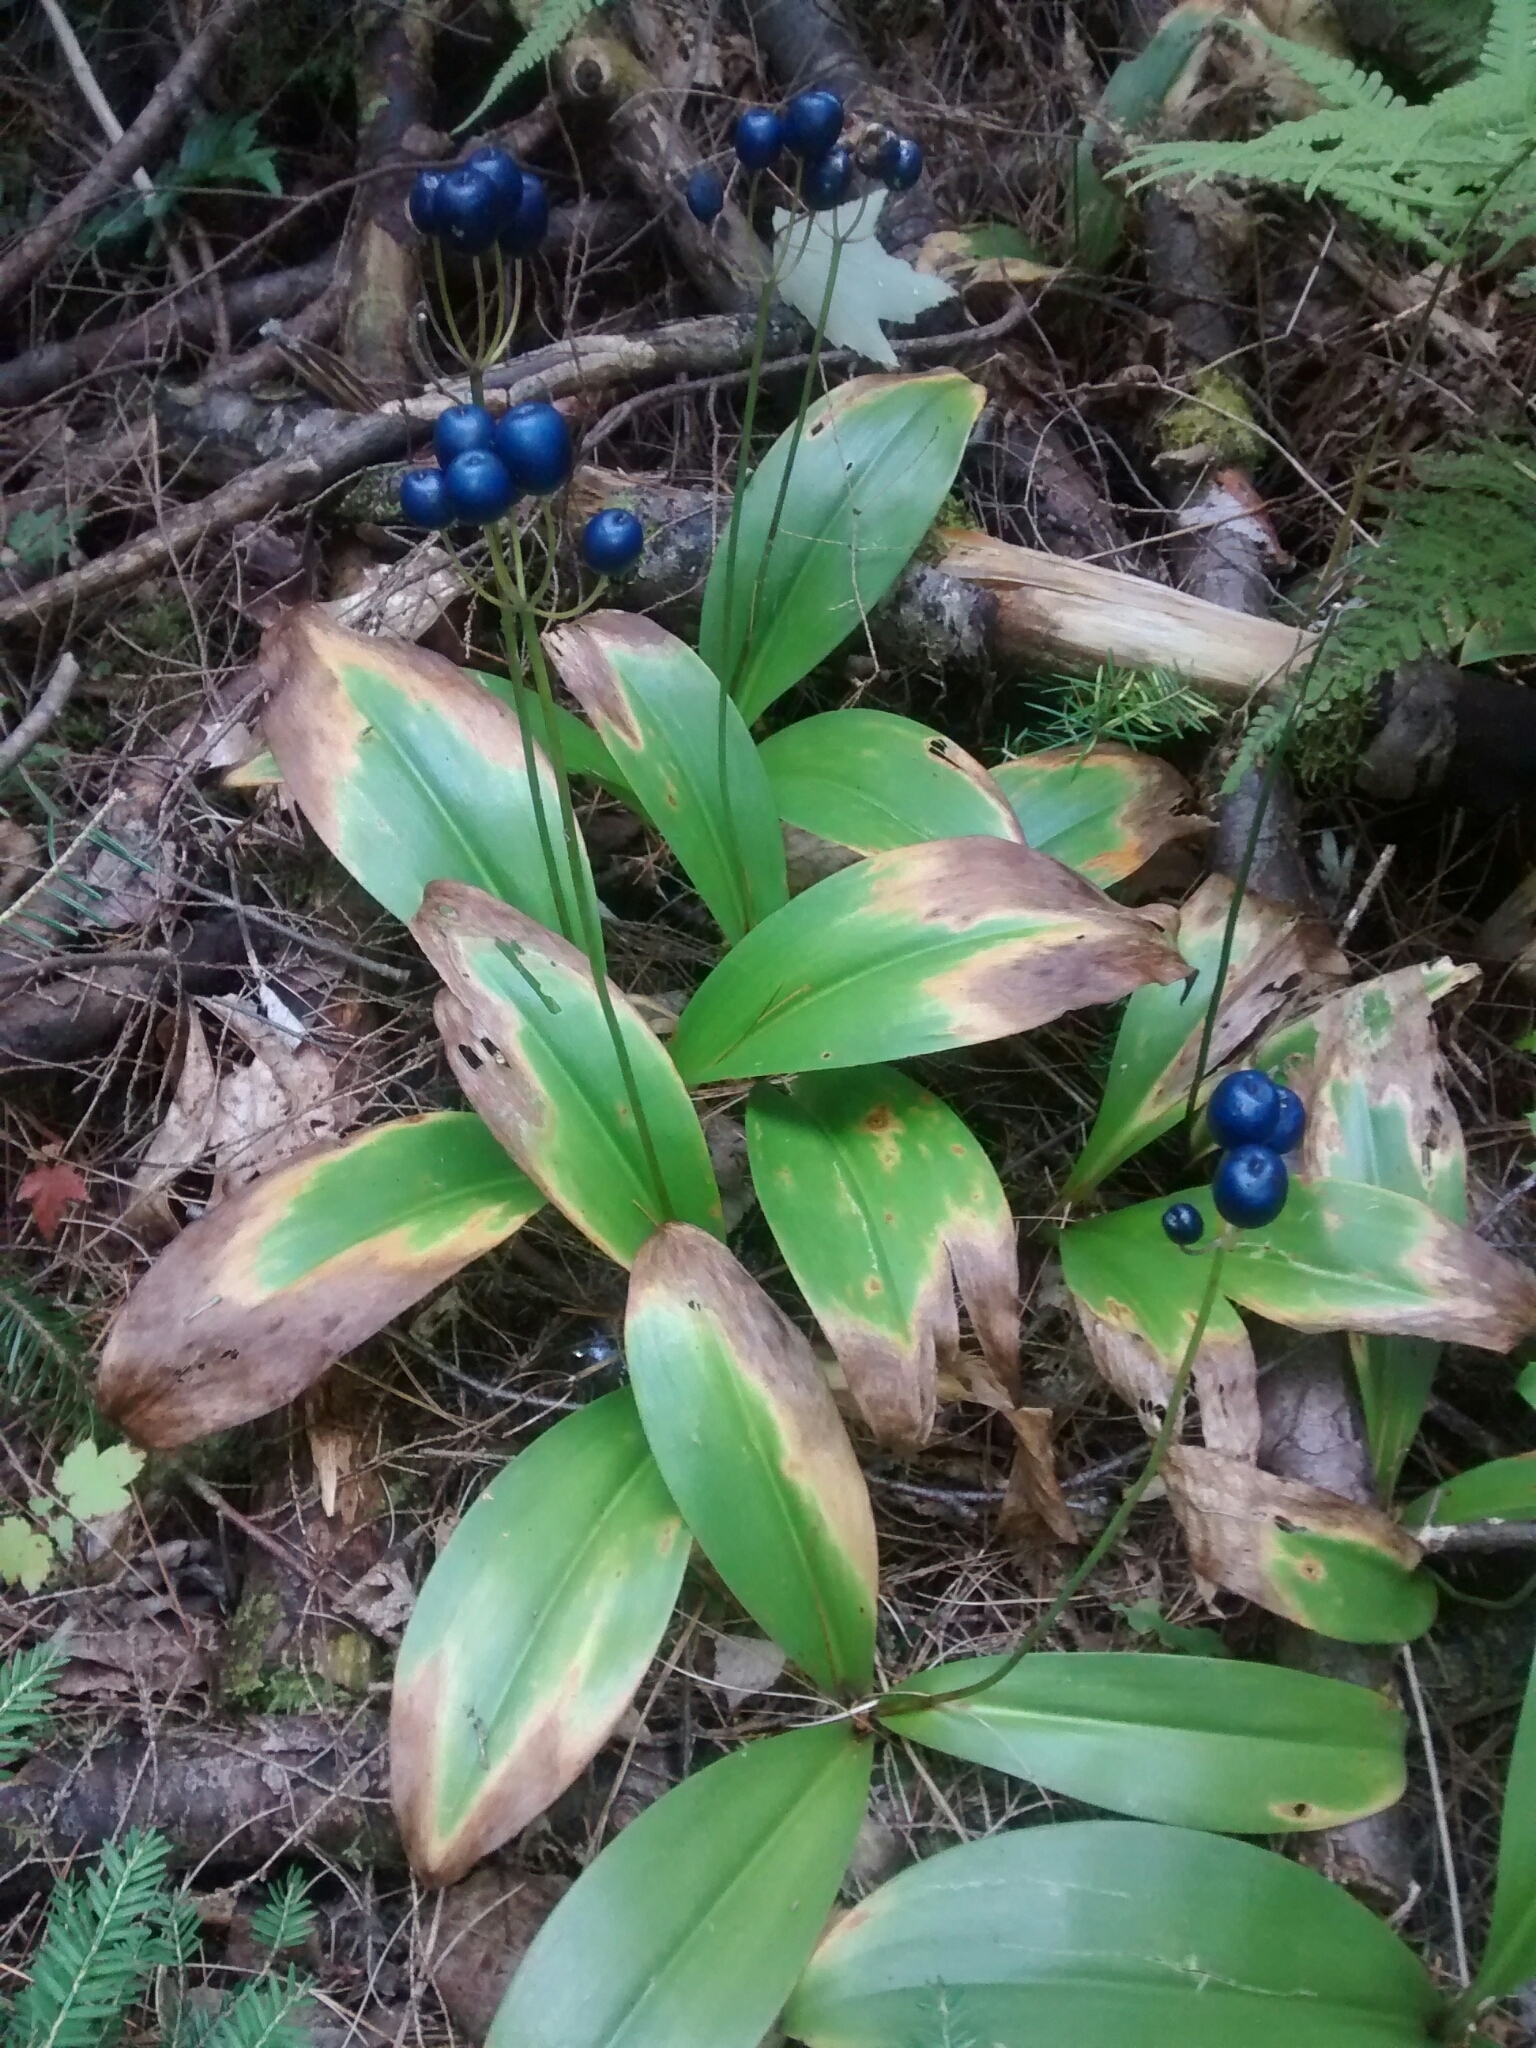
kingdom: Plantae
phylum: Tracheophyta
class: Liliopsida
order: Liliales
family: Liliaceae
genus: Clintonia
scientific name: Clintonia borealis
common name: Yellow clintonia
